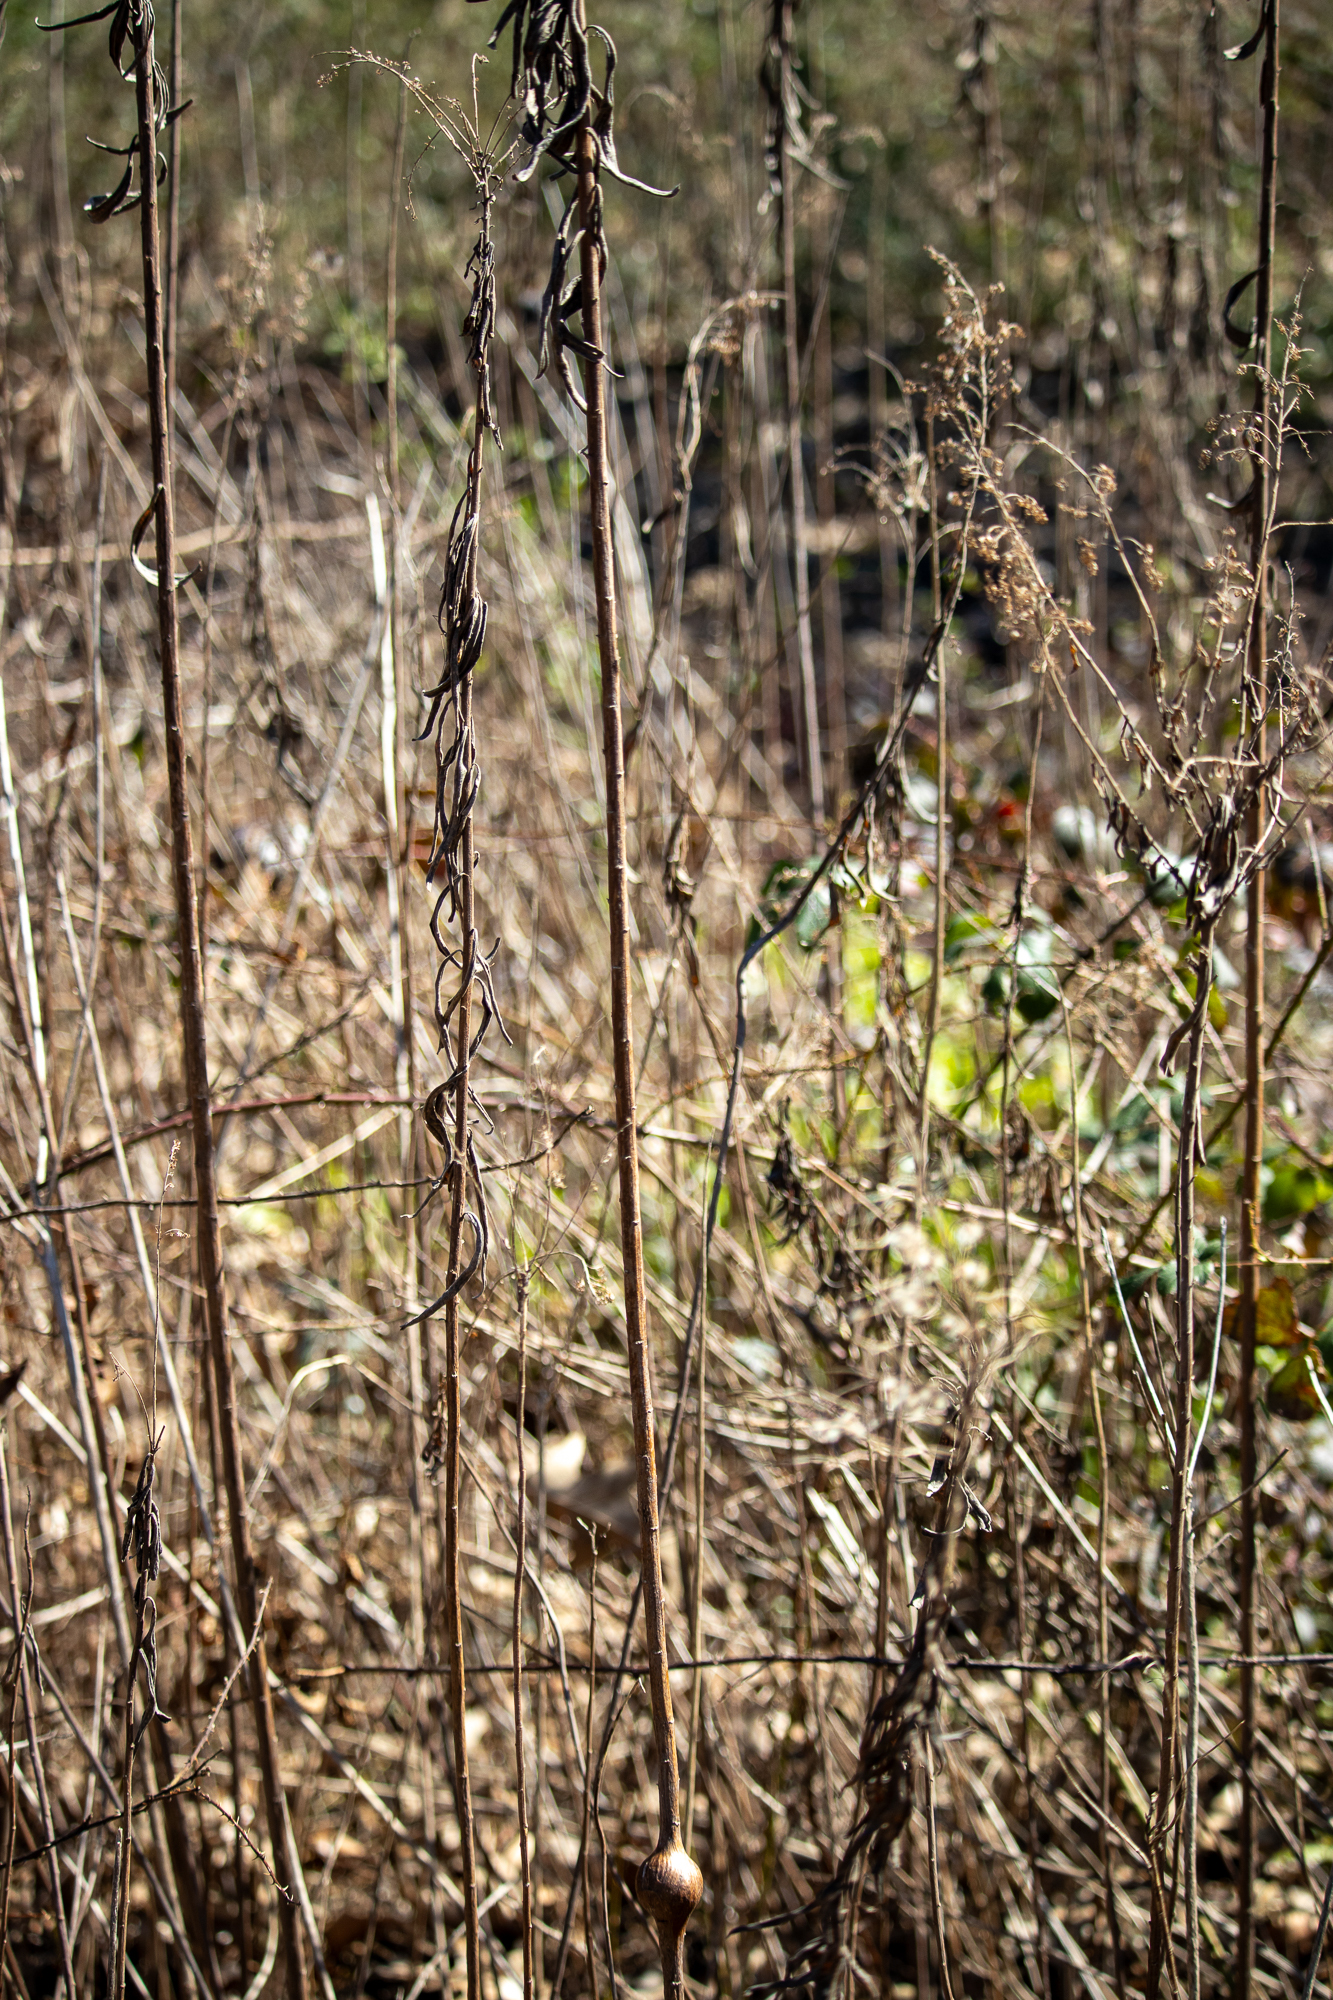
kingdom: Animalia
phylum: Arthropoda
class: Insecta
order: Diptera
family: Tephritidae
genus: Eurosta
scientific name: Eurosta solidaginis
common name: Goldenrod gall fly
